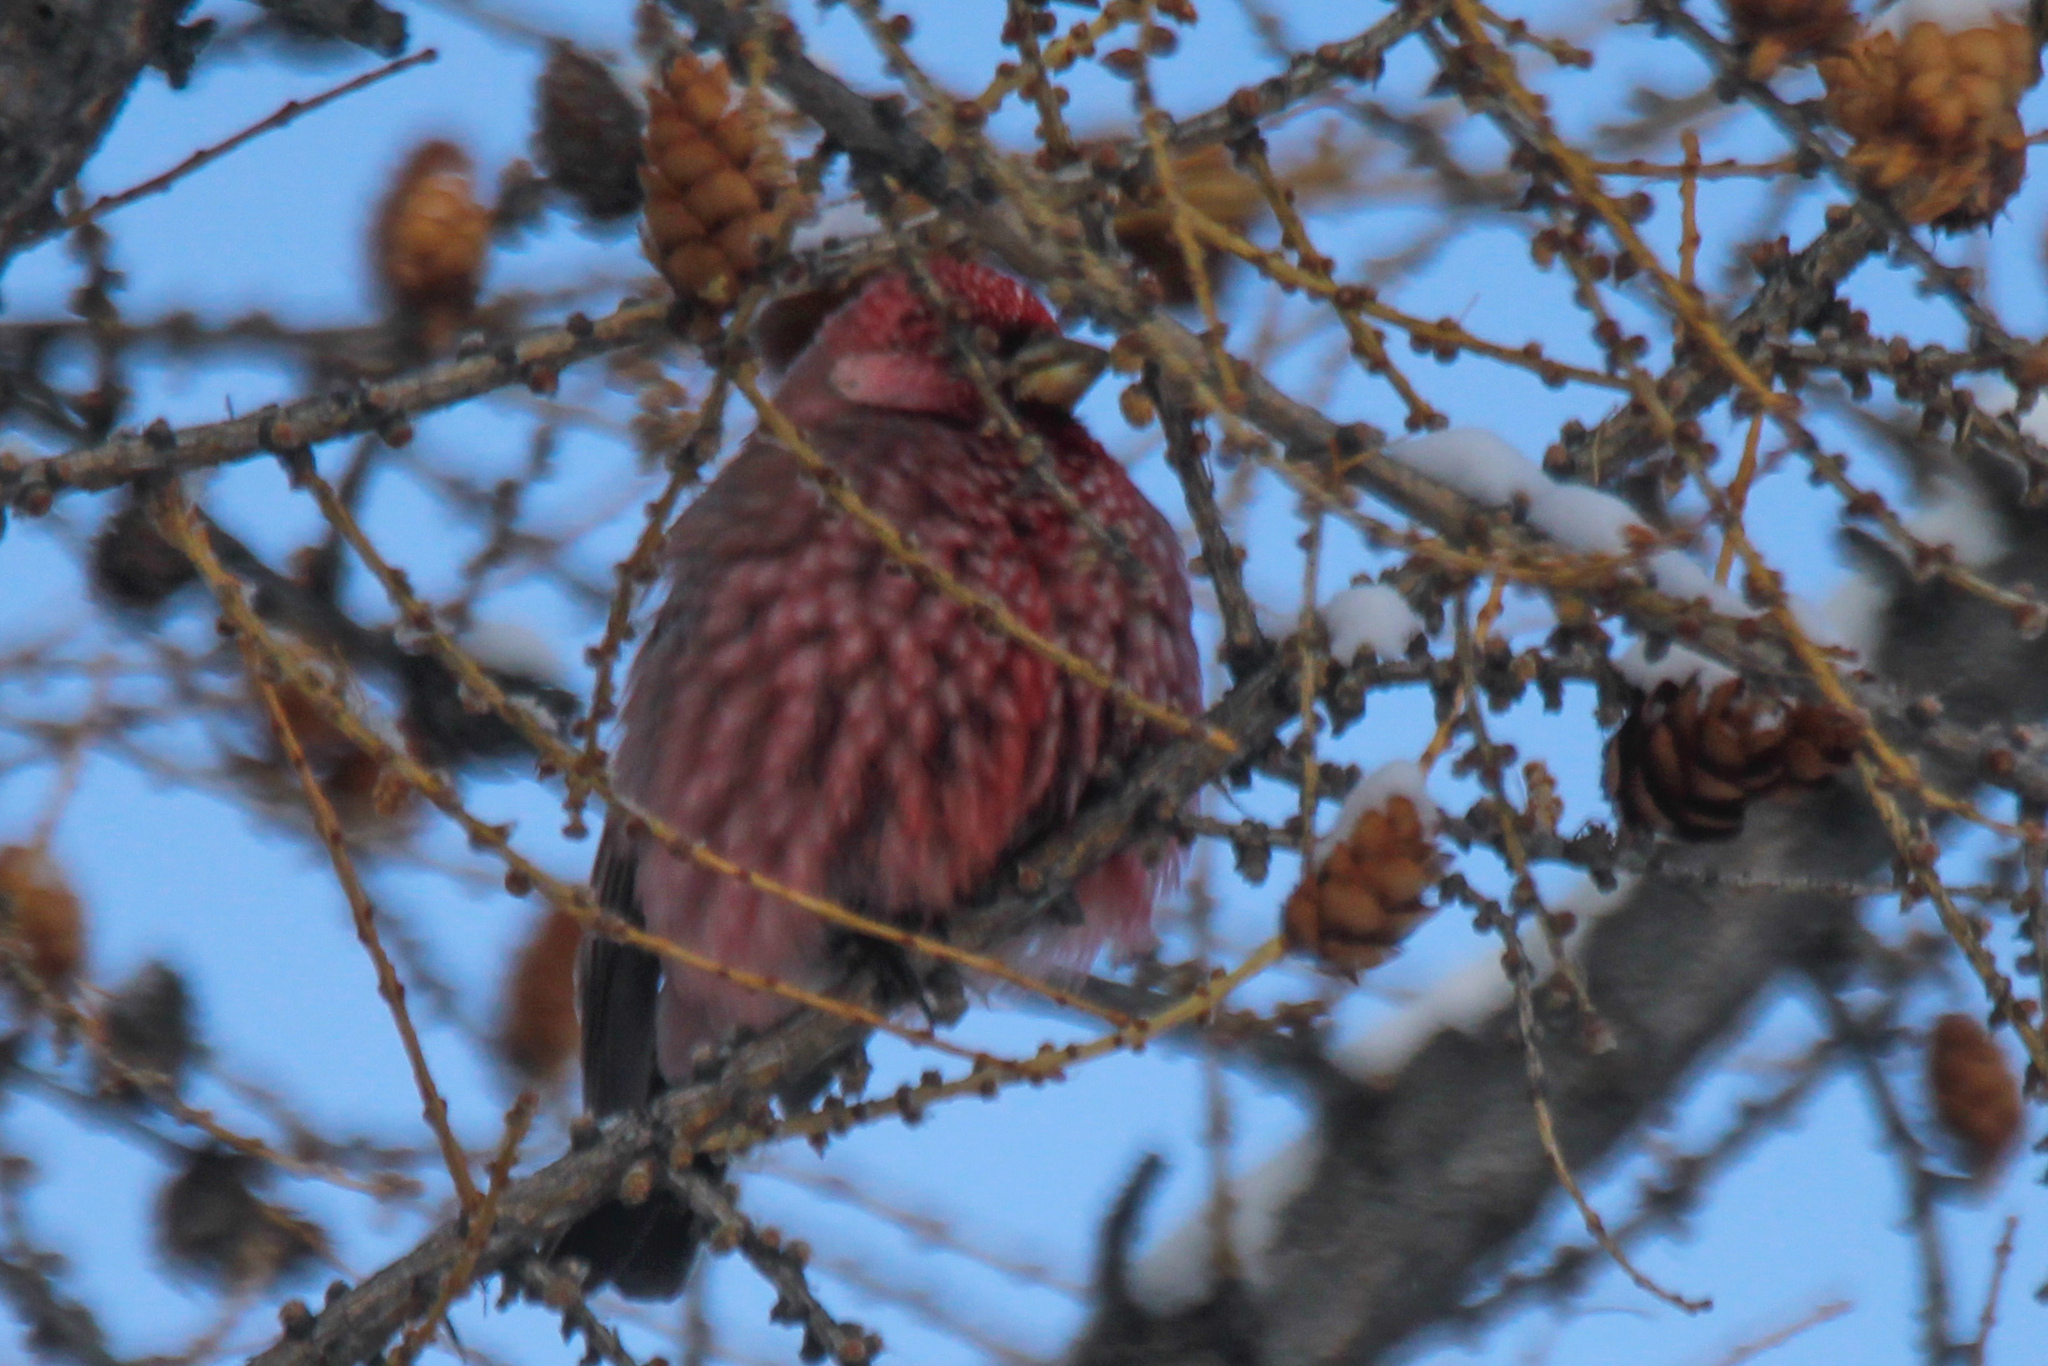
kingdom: Animalia
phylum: Chordata
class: Aves
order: Passeriformes
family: Fringillidae
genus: Carpodacus
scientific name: Carpodacus rubicilla
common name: Great rosefinch
